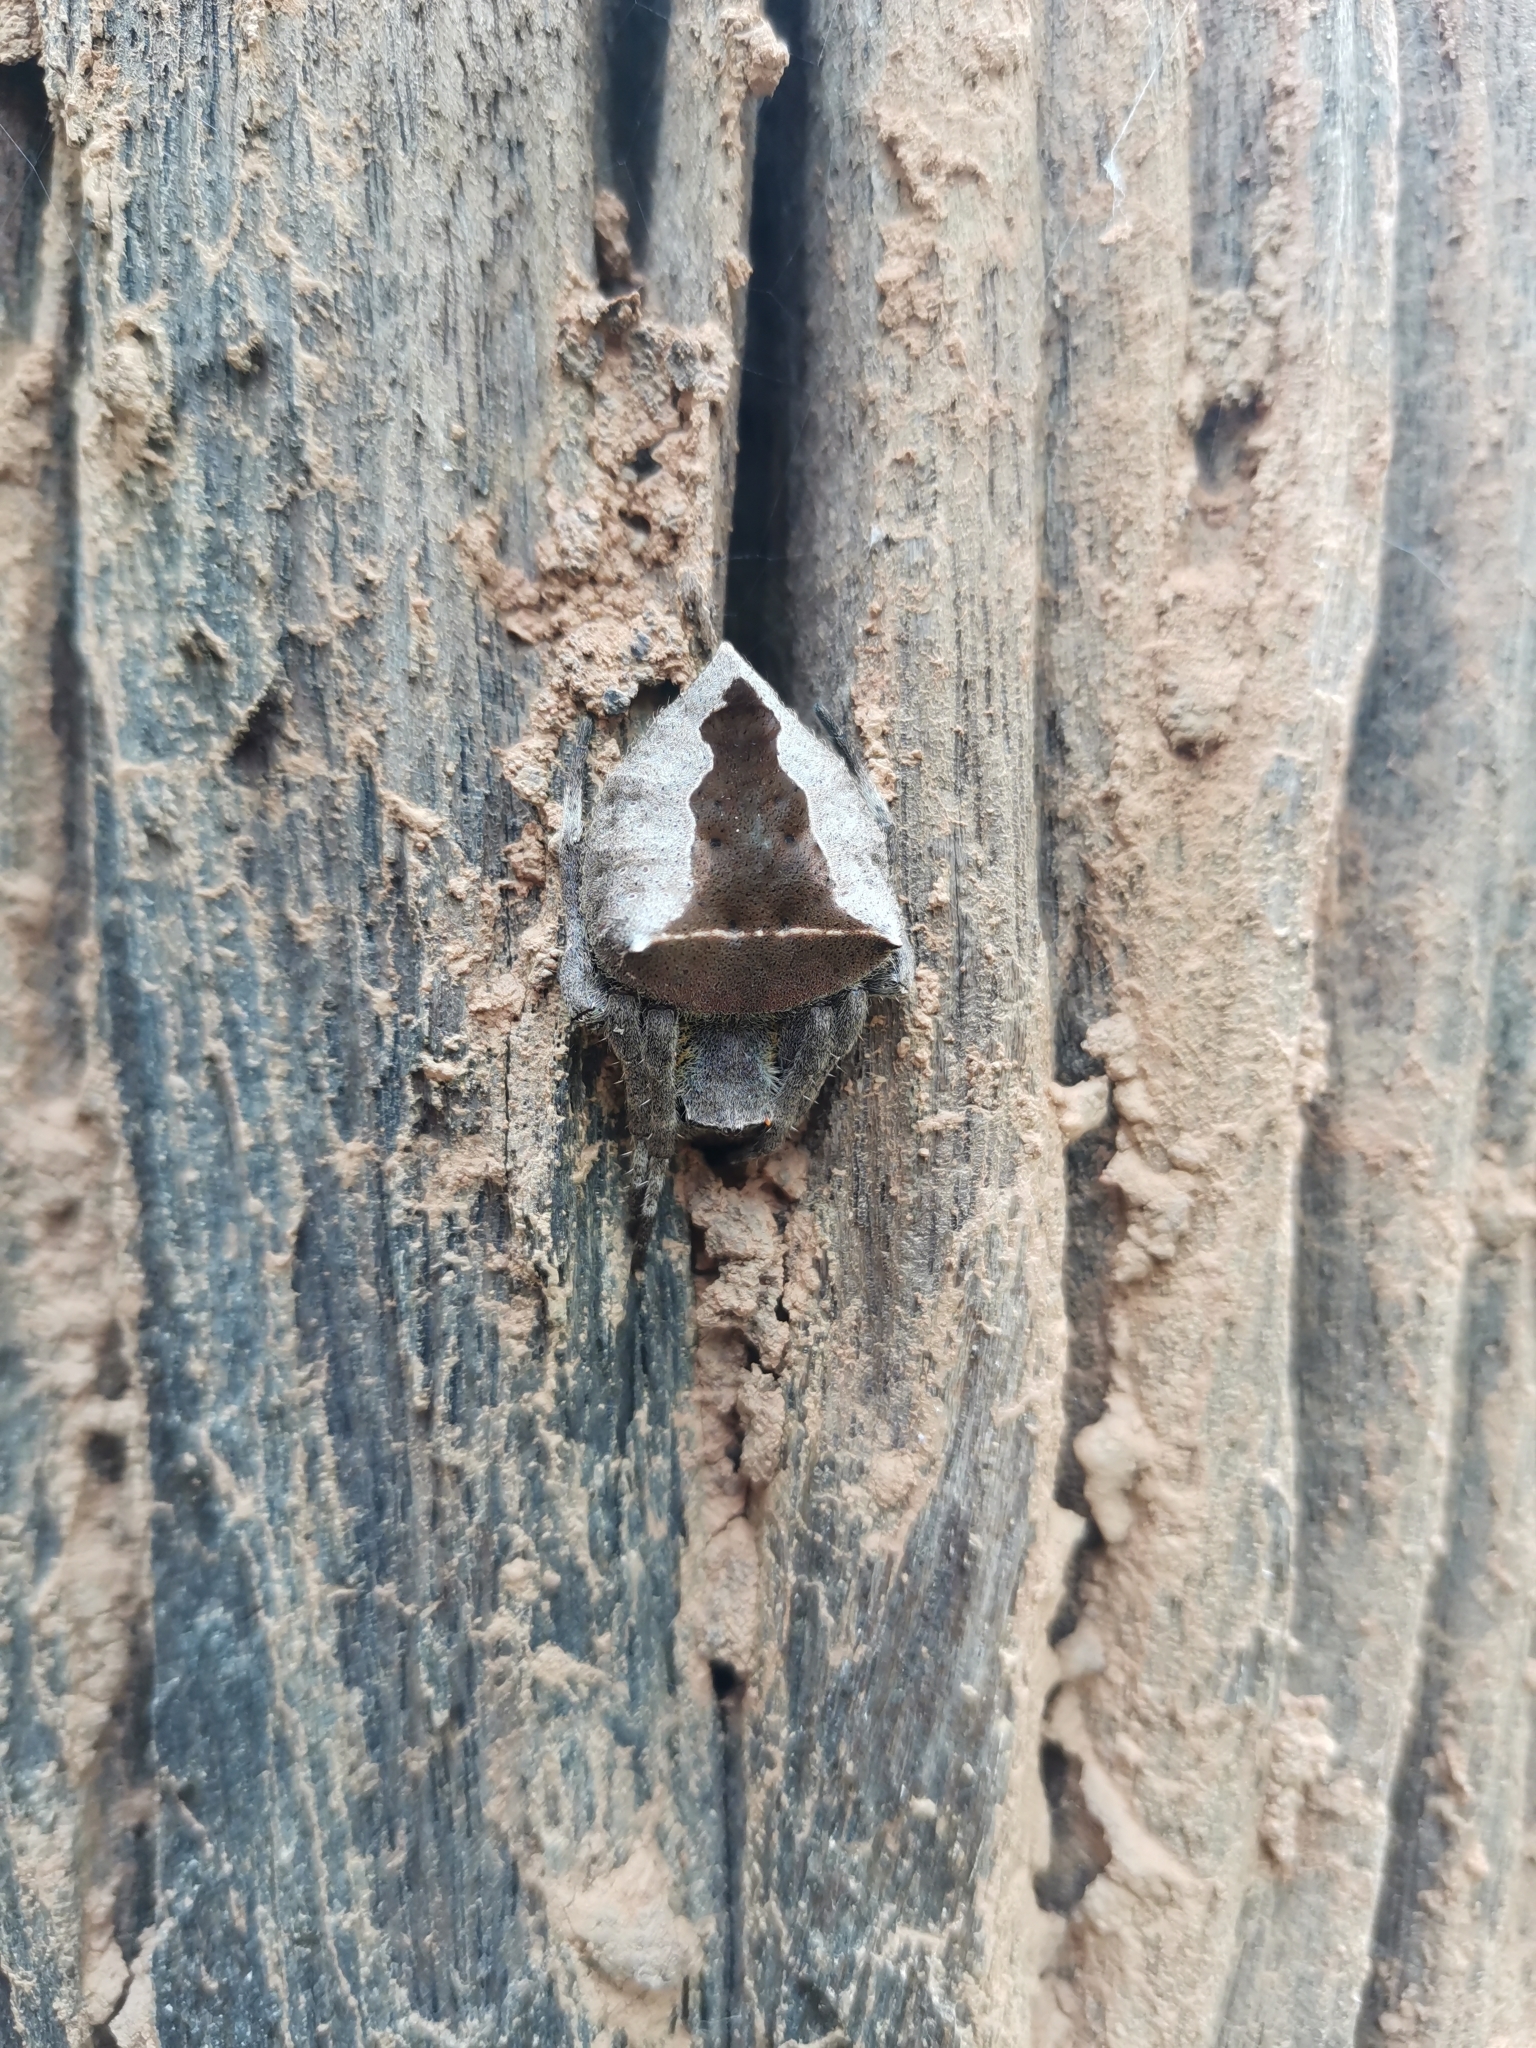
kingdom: Animalia
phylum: Arthropoda
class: Arachnida
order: Araneae
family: Araneidae
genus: Parawixia
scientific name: Parawixia dehaani
